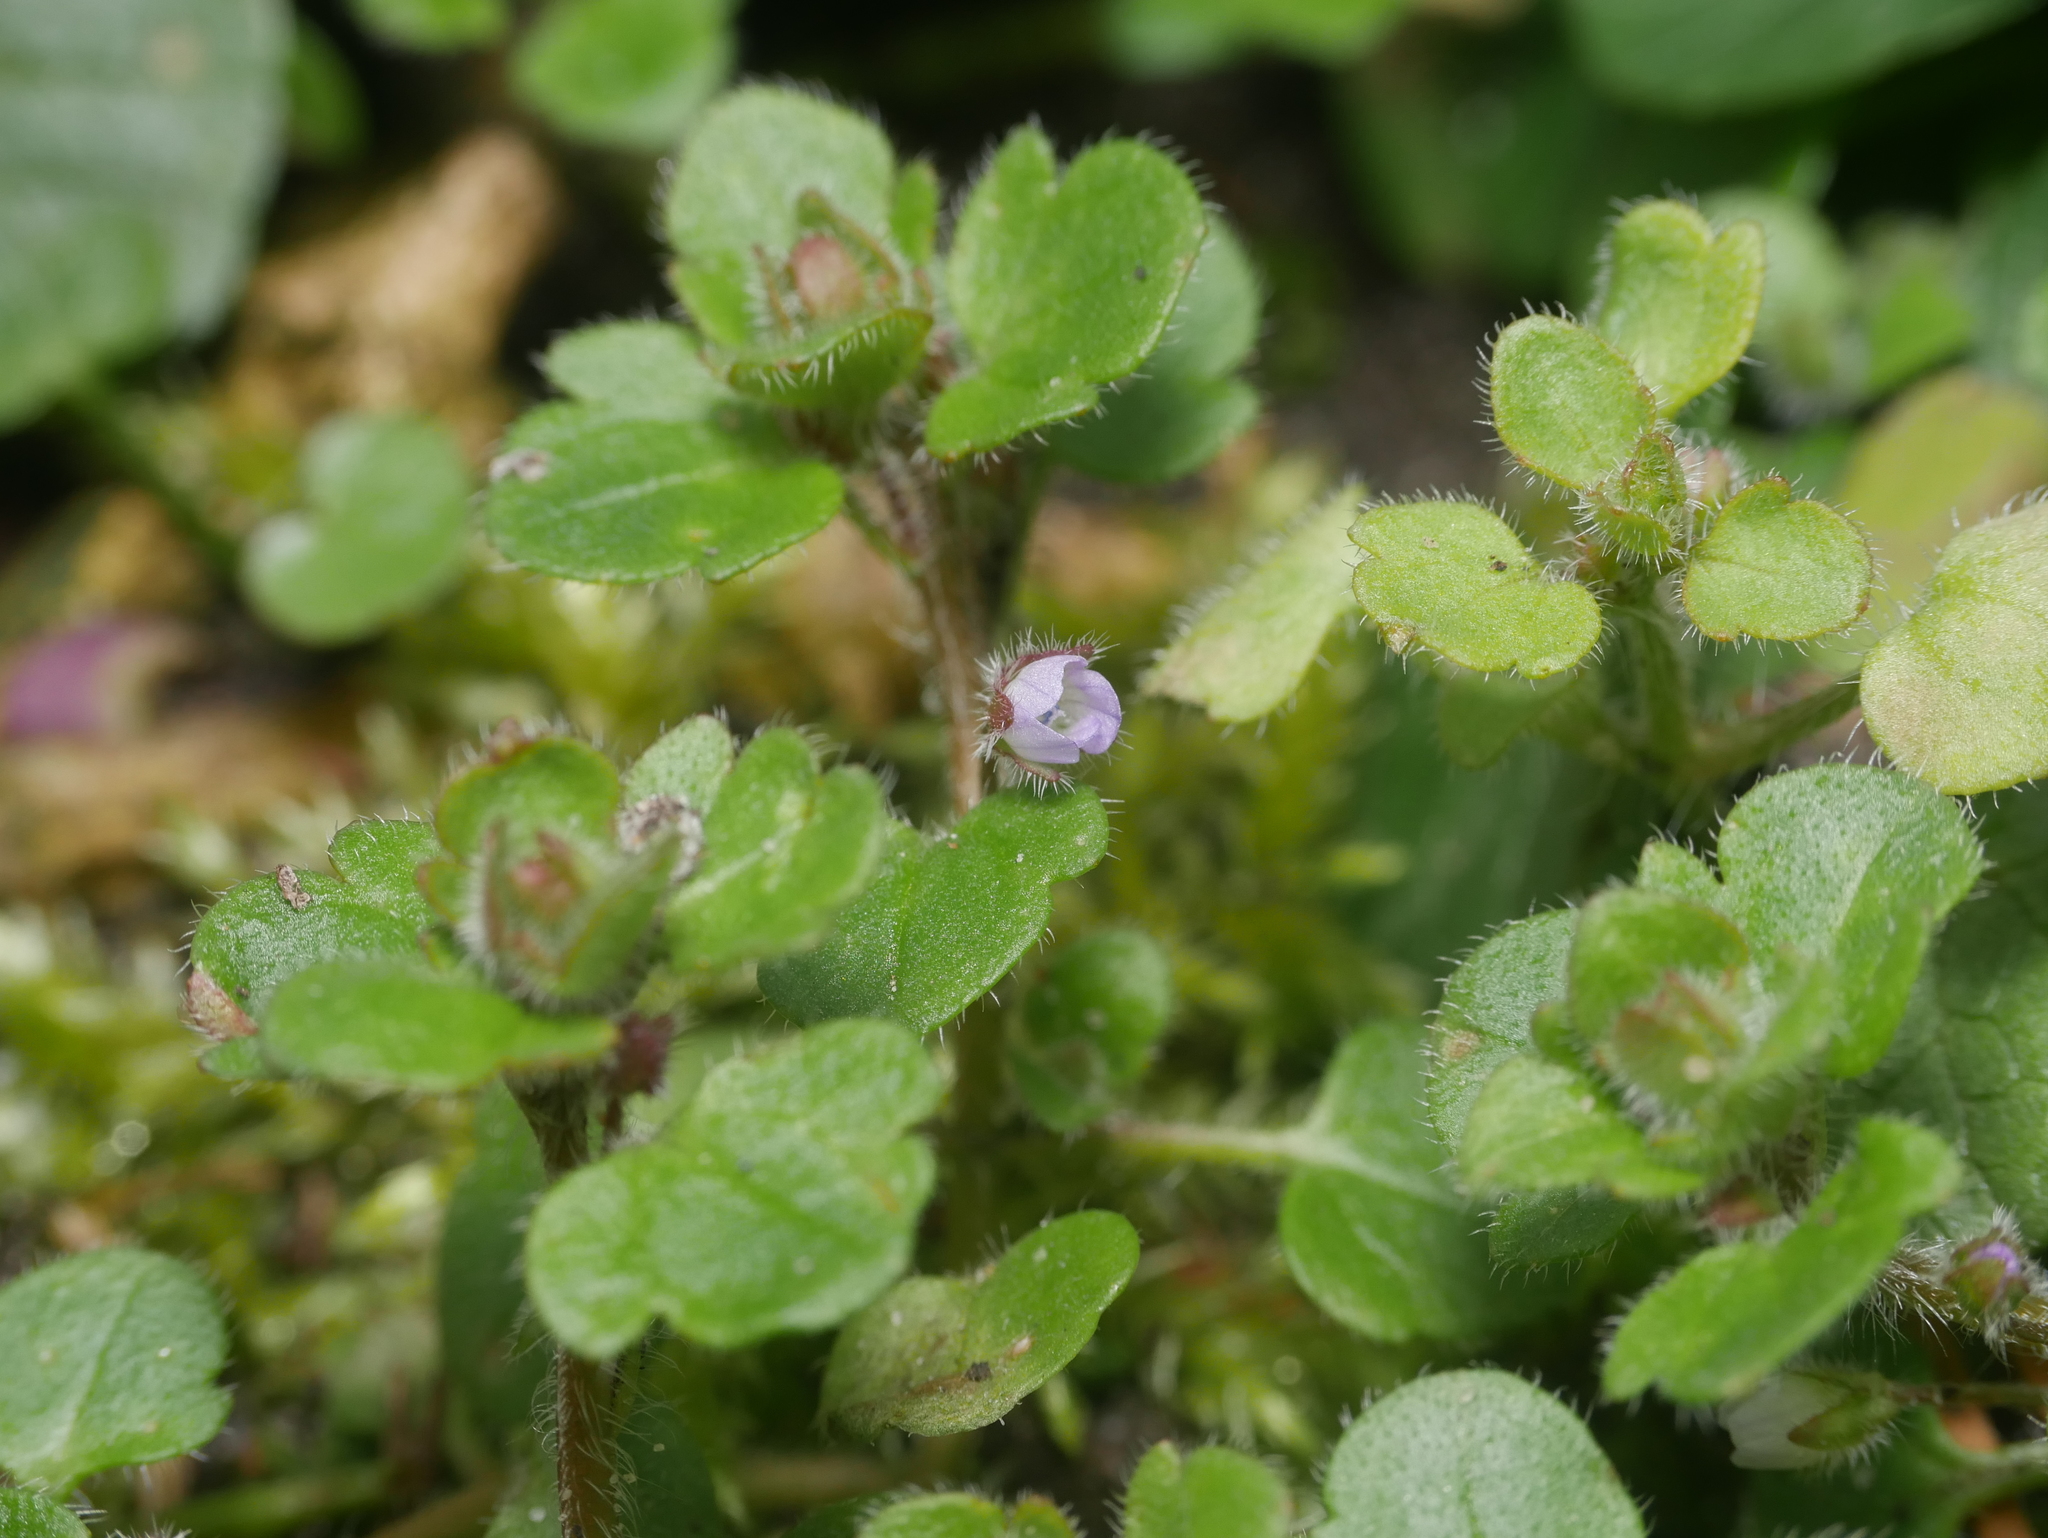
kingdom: Plantae
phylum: Tracheophyta
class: Magnoliopsida
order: Lamiales
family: Plantaginaceae
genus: Veronica
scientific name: Veronica sublobata
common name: False ivy-leaved speedwell
